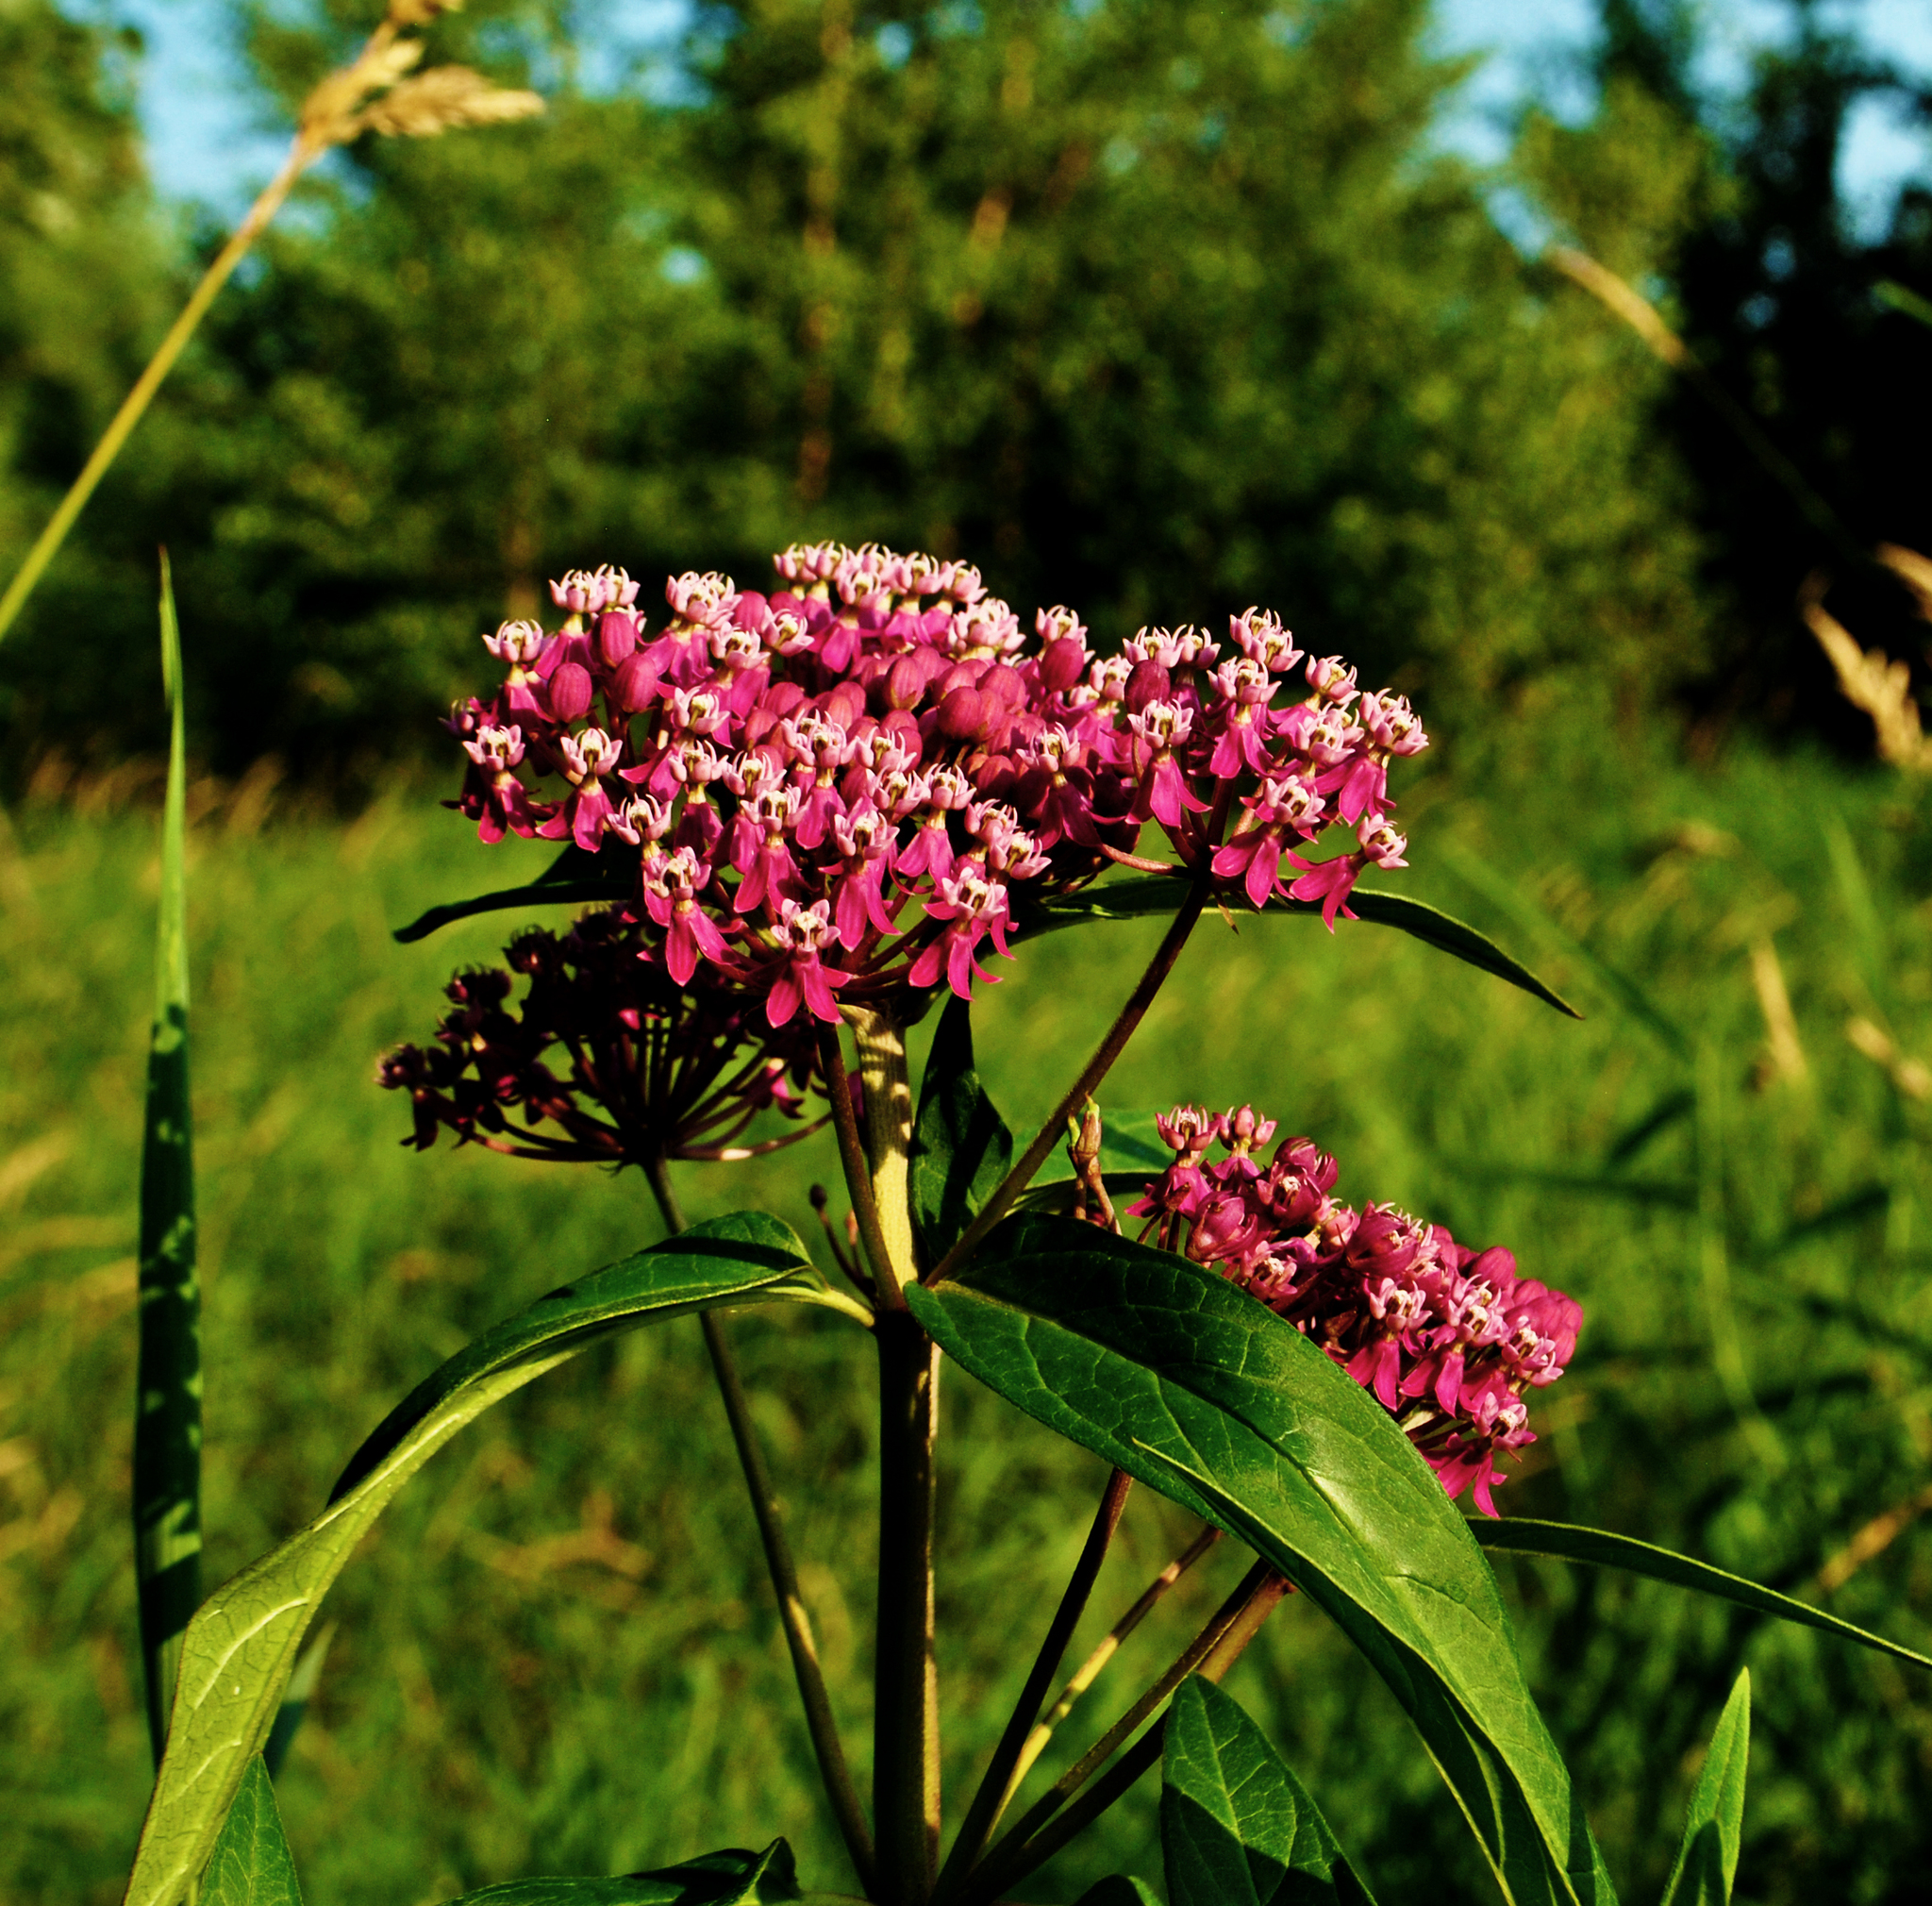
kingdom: Plantae
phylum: Tracheophyta
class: Magnoliopsida
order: Gentianales
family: Apocynaceae
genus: Asclepias
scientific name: Asclepias incarnata
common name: Swamp milkweed
